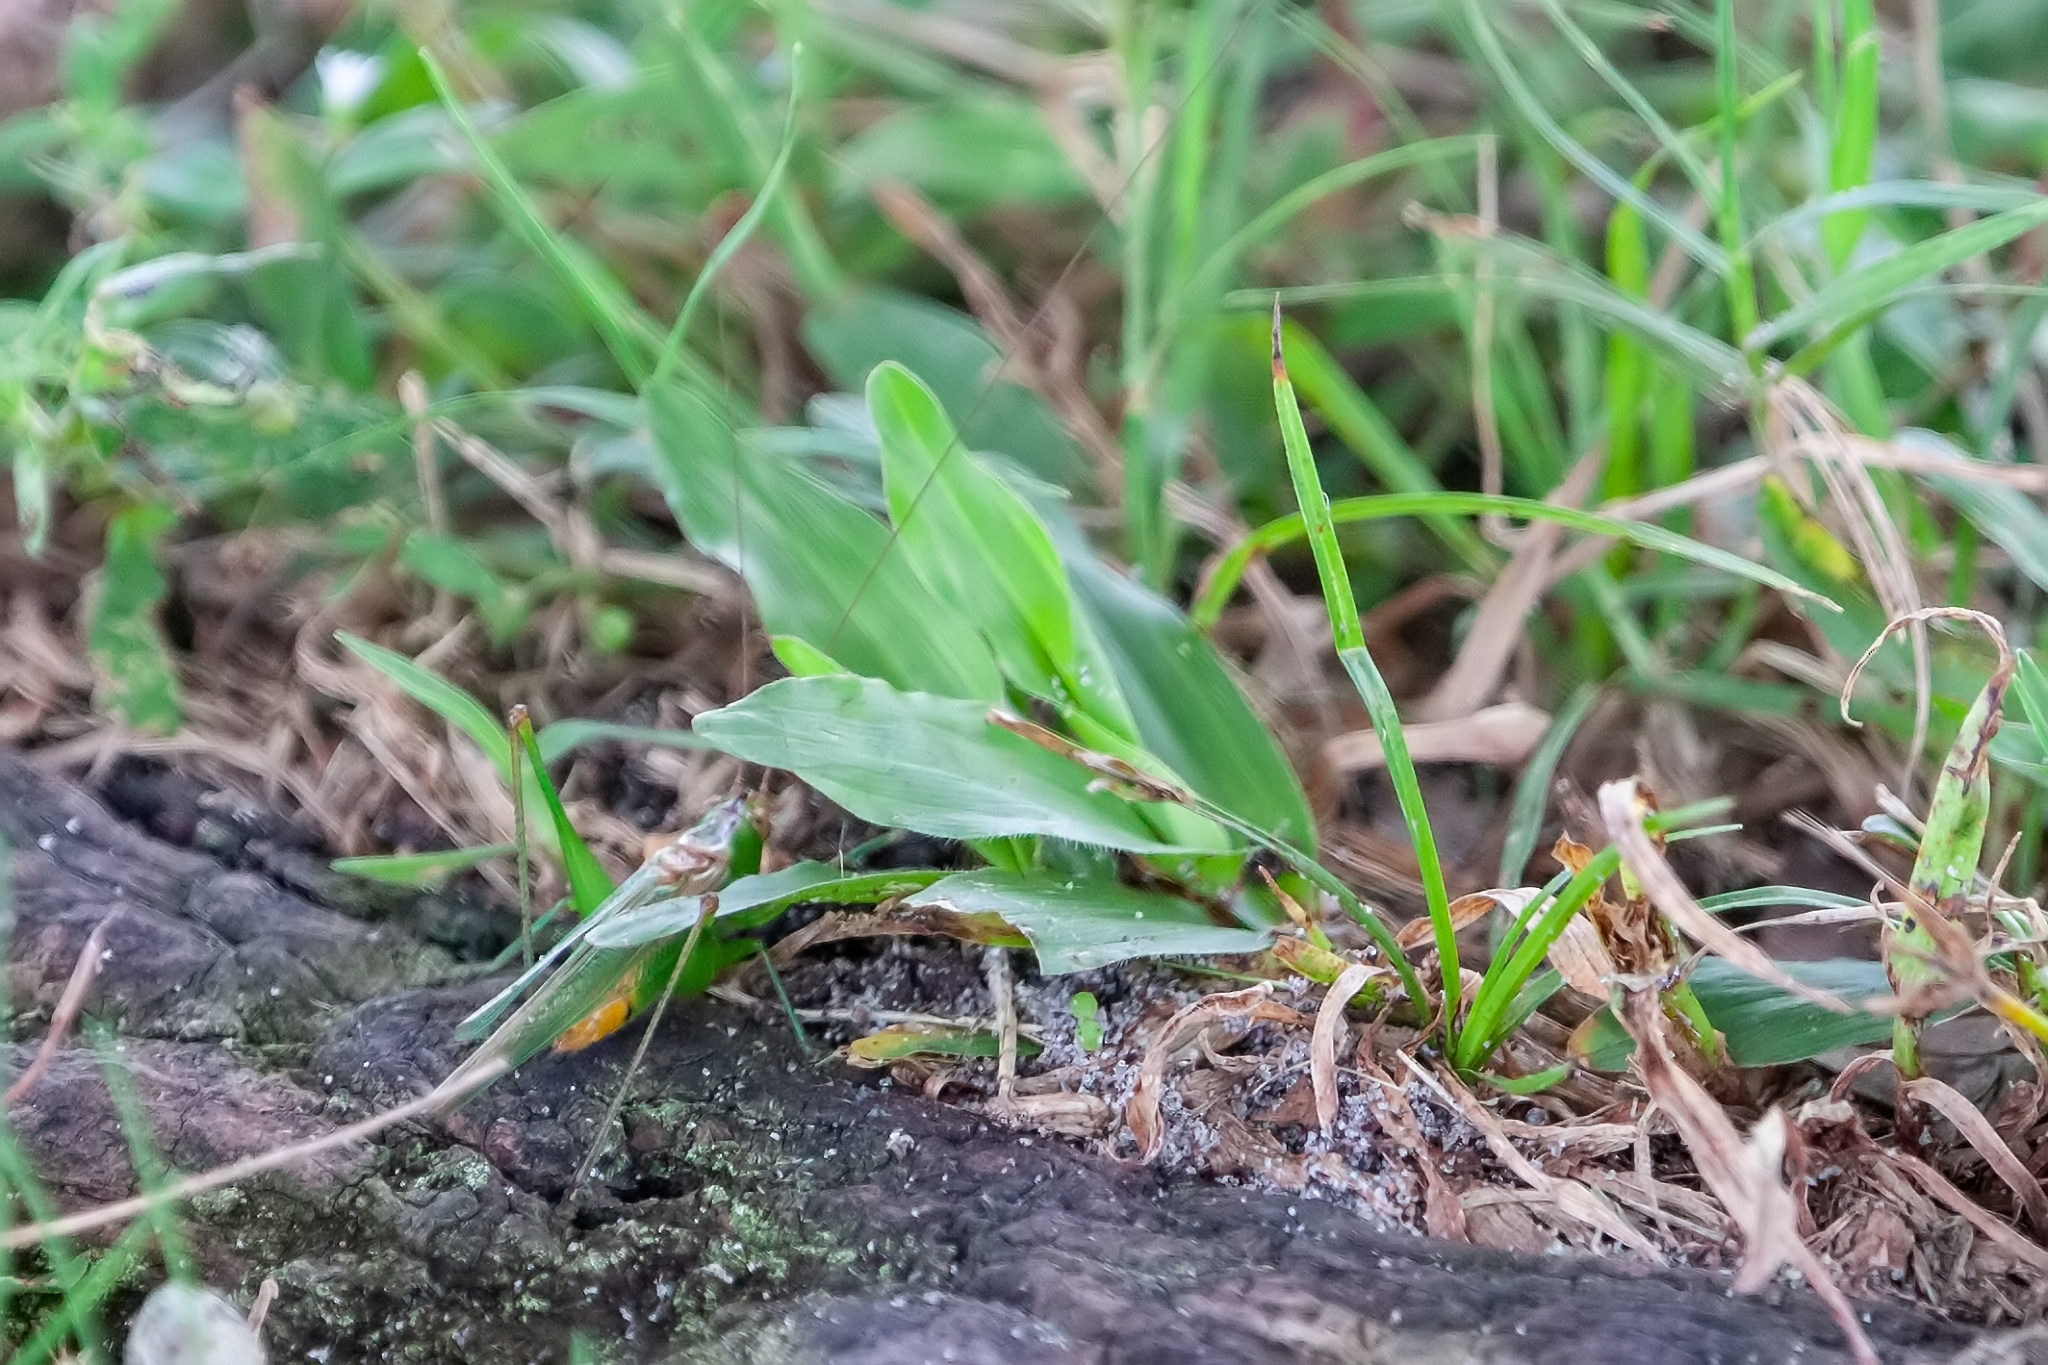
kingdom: Animalia
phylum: Arthropoda
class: Insecta
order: Orthoptera
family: Tettigoniidae
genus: Conocephalus
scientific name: Conocephalus cinereus
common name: Caribbean meadow katydid
